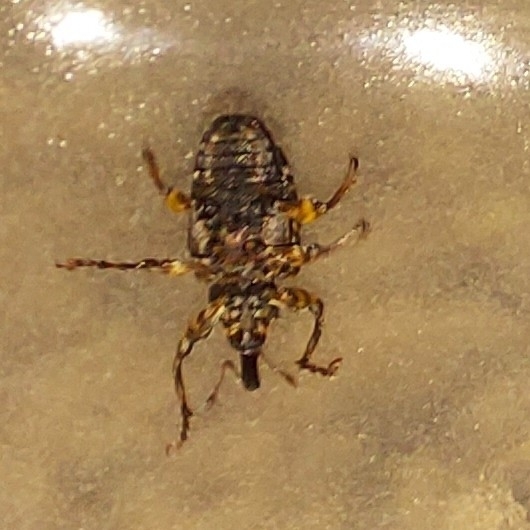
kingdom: Animalia
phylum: Arthropoda
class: Insecta
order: Coleoptera
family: Curculionidae
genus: Conotrachelus
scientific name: Conotrachelus nenuphar
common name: Plum curculio
